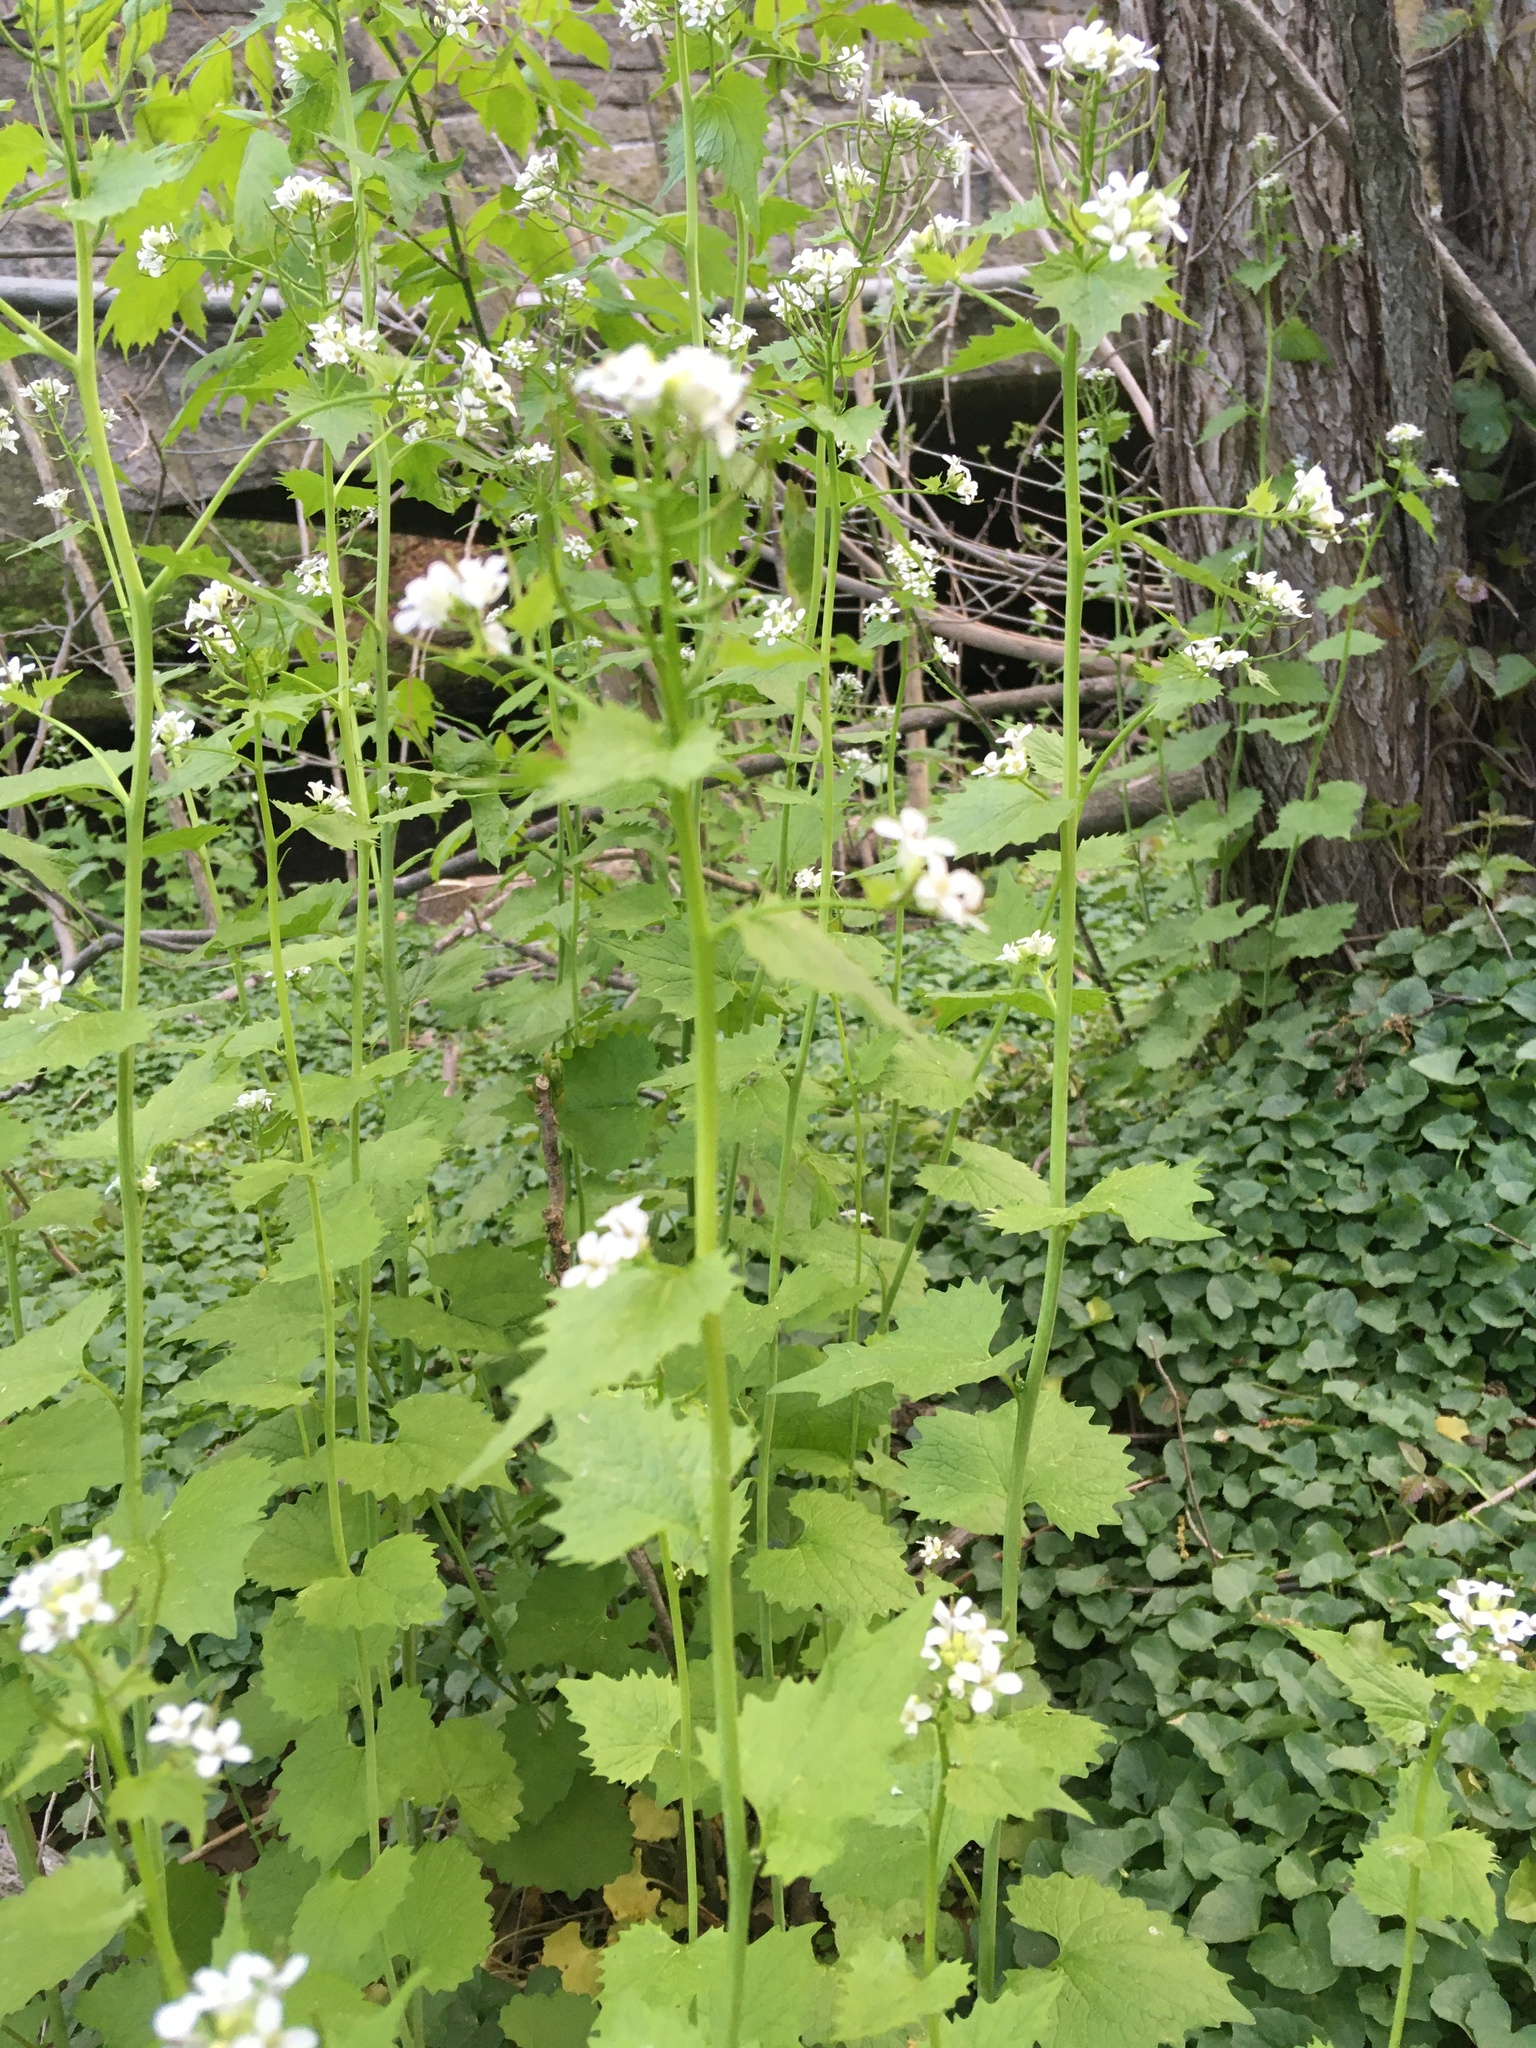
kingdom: Plantae
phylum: Tracheophyta
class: Magnoliopsida
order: Brassicales
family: Brassicaceae
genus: Alliaria
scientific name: Alliaria petiolata
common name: Garlic mustard
